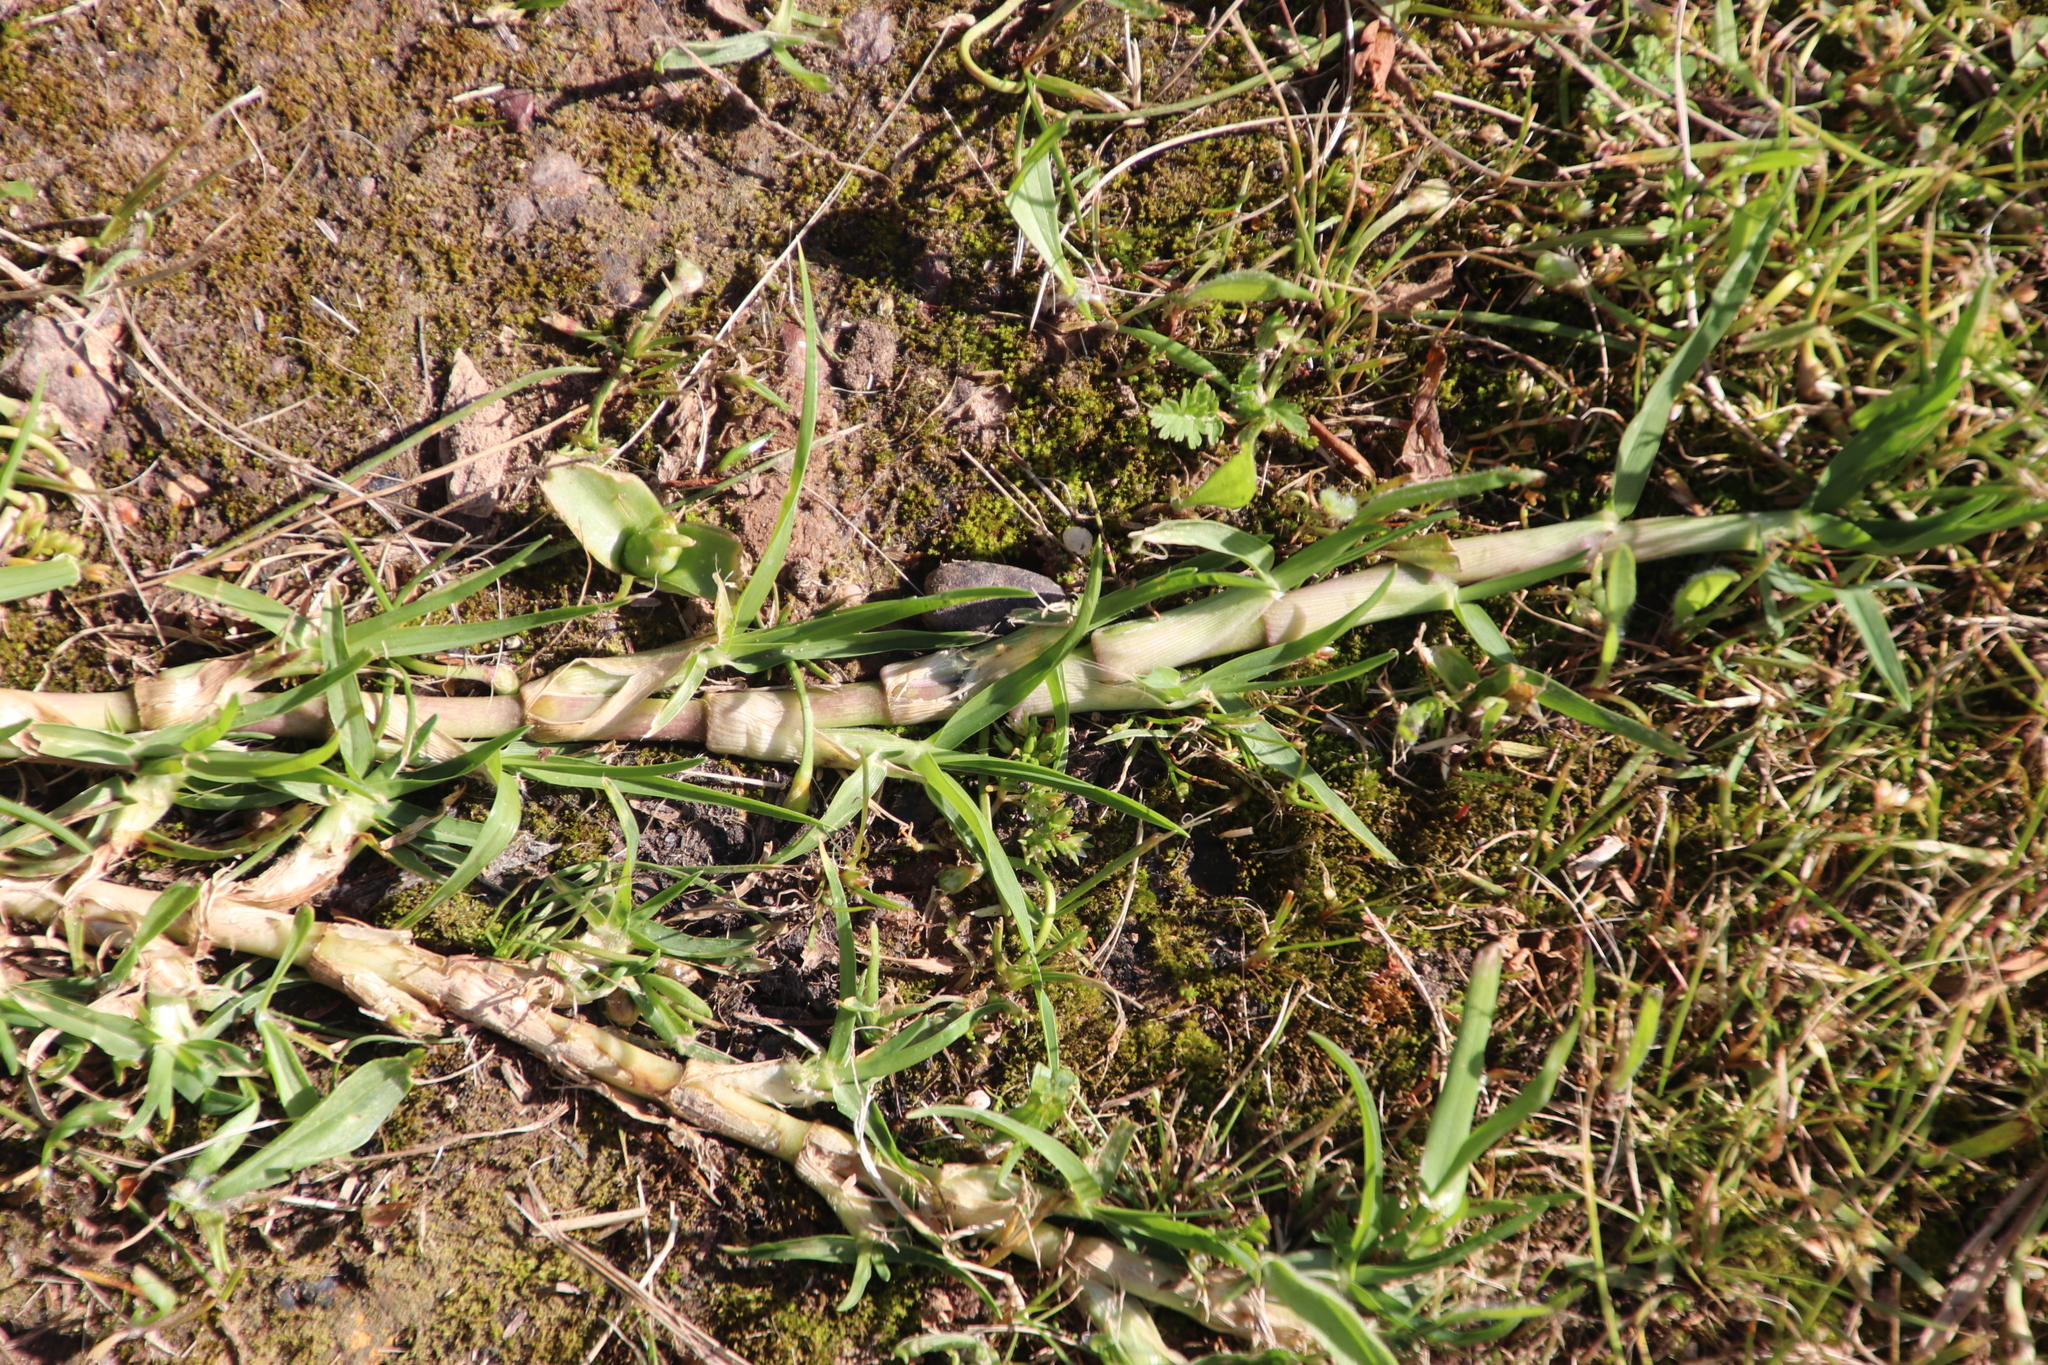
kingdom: Plantae
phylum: Tracheophyta
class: Liliopsida
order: Poales
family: Poaceae
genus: Cenchrus
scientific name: Cenchrus clandestinus
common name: Kikuyugrass
